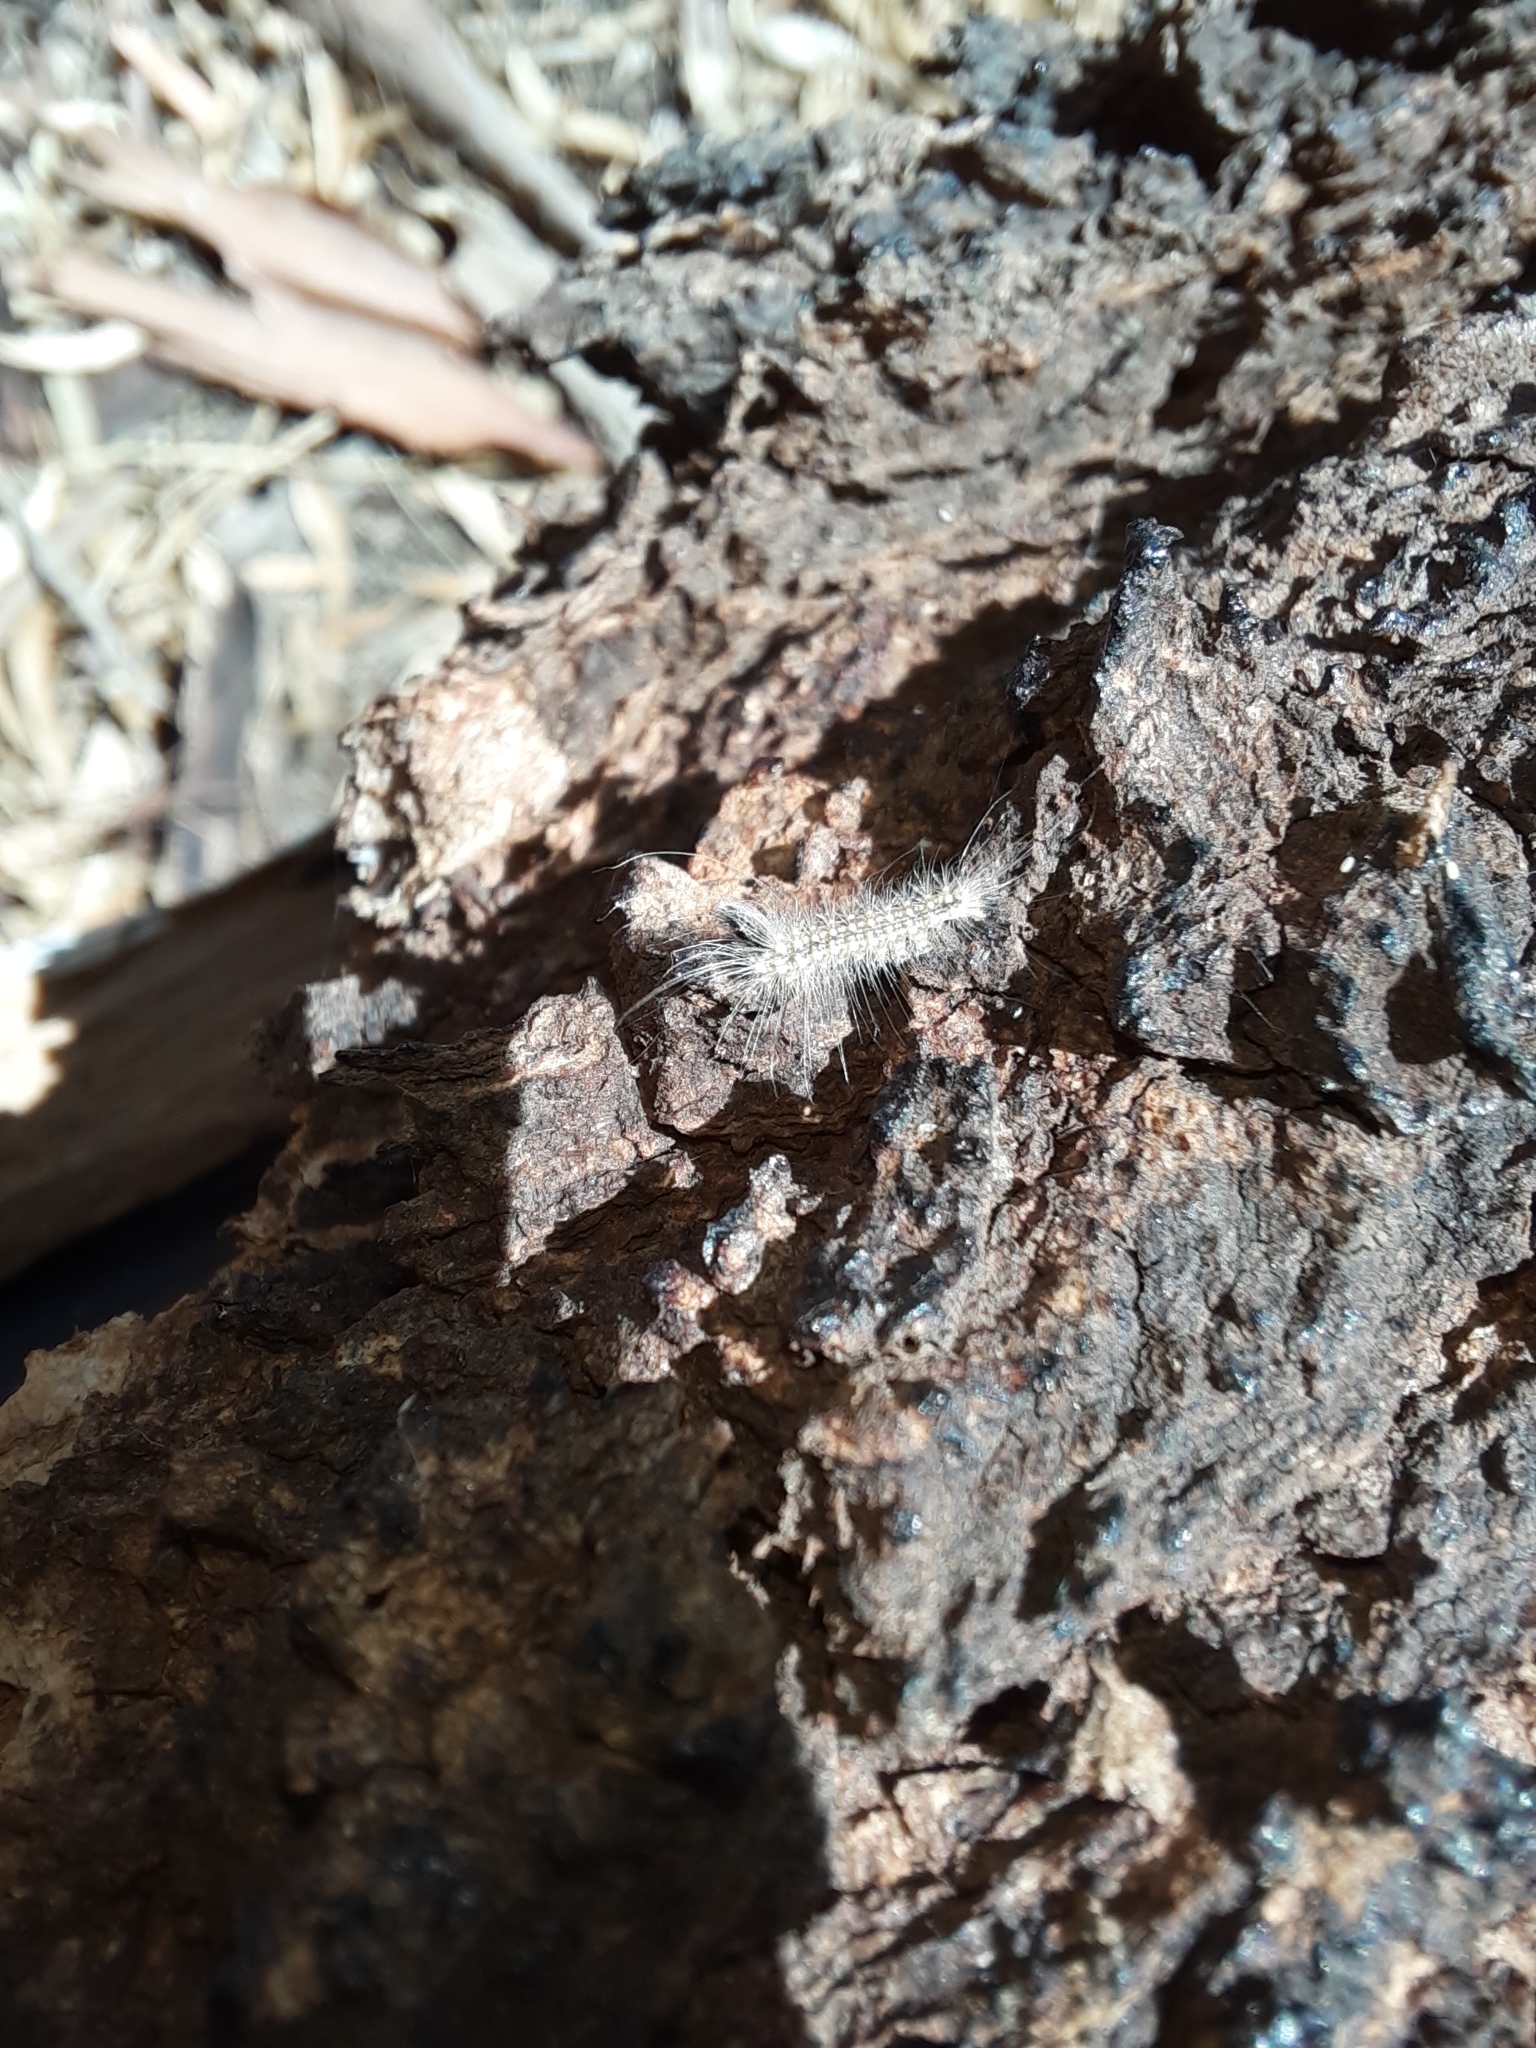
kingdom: Animalia
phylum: Arthropoda
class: Insecta
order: Lepidoptera
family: Nolidae
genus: Uraba
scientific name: Uraba lugens
